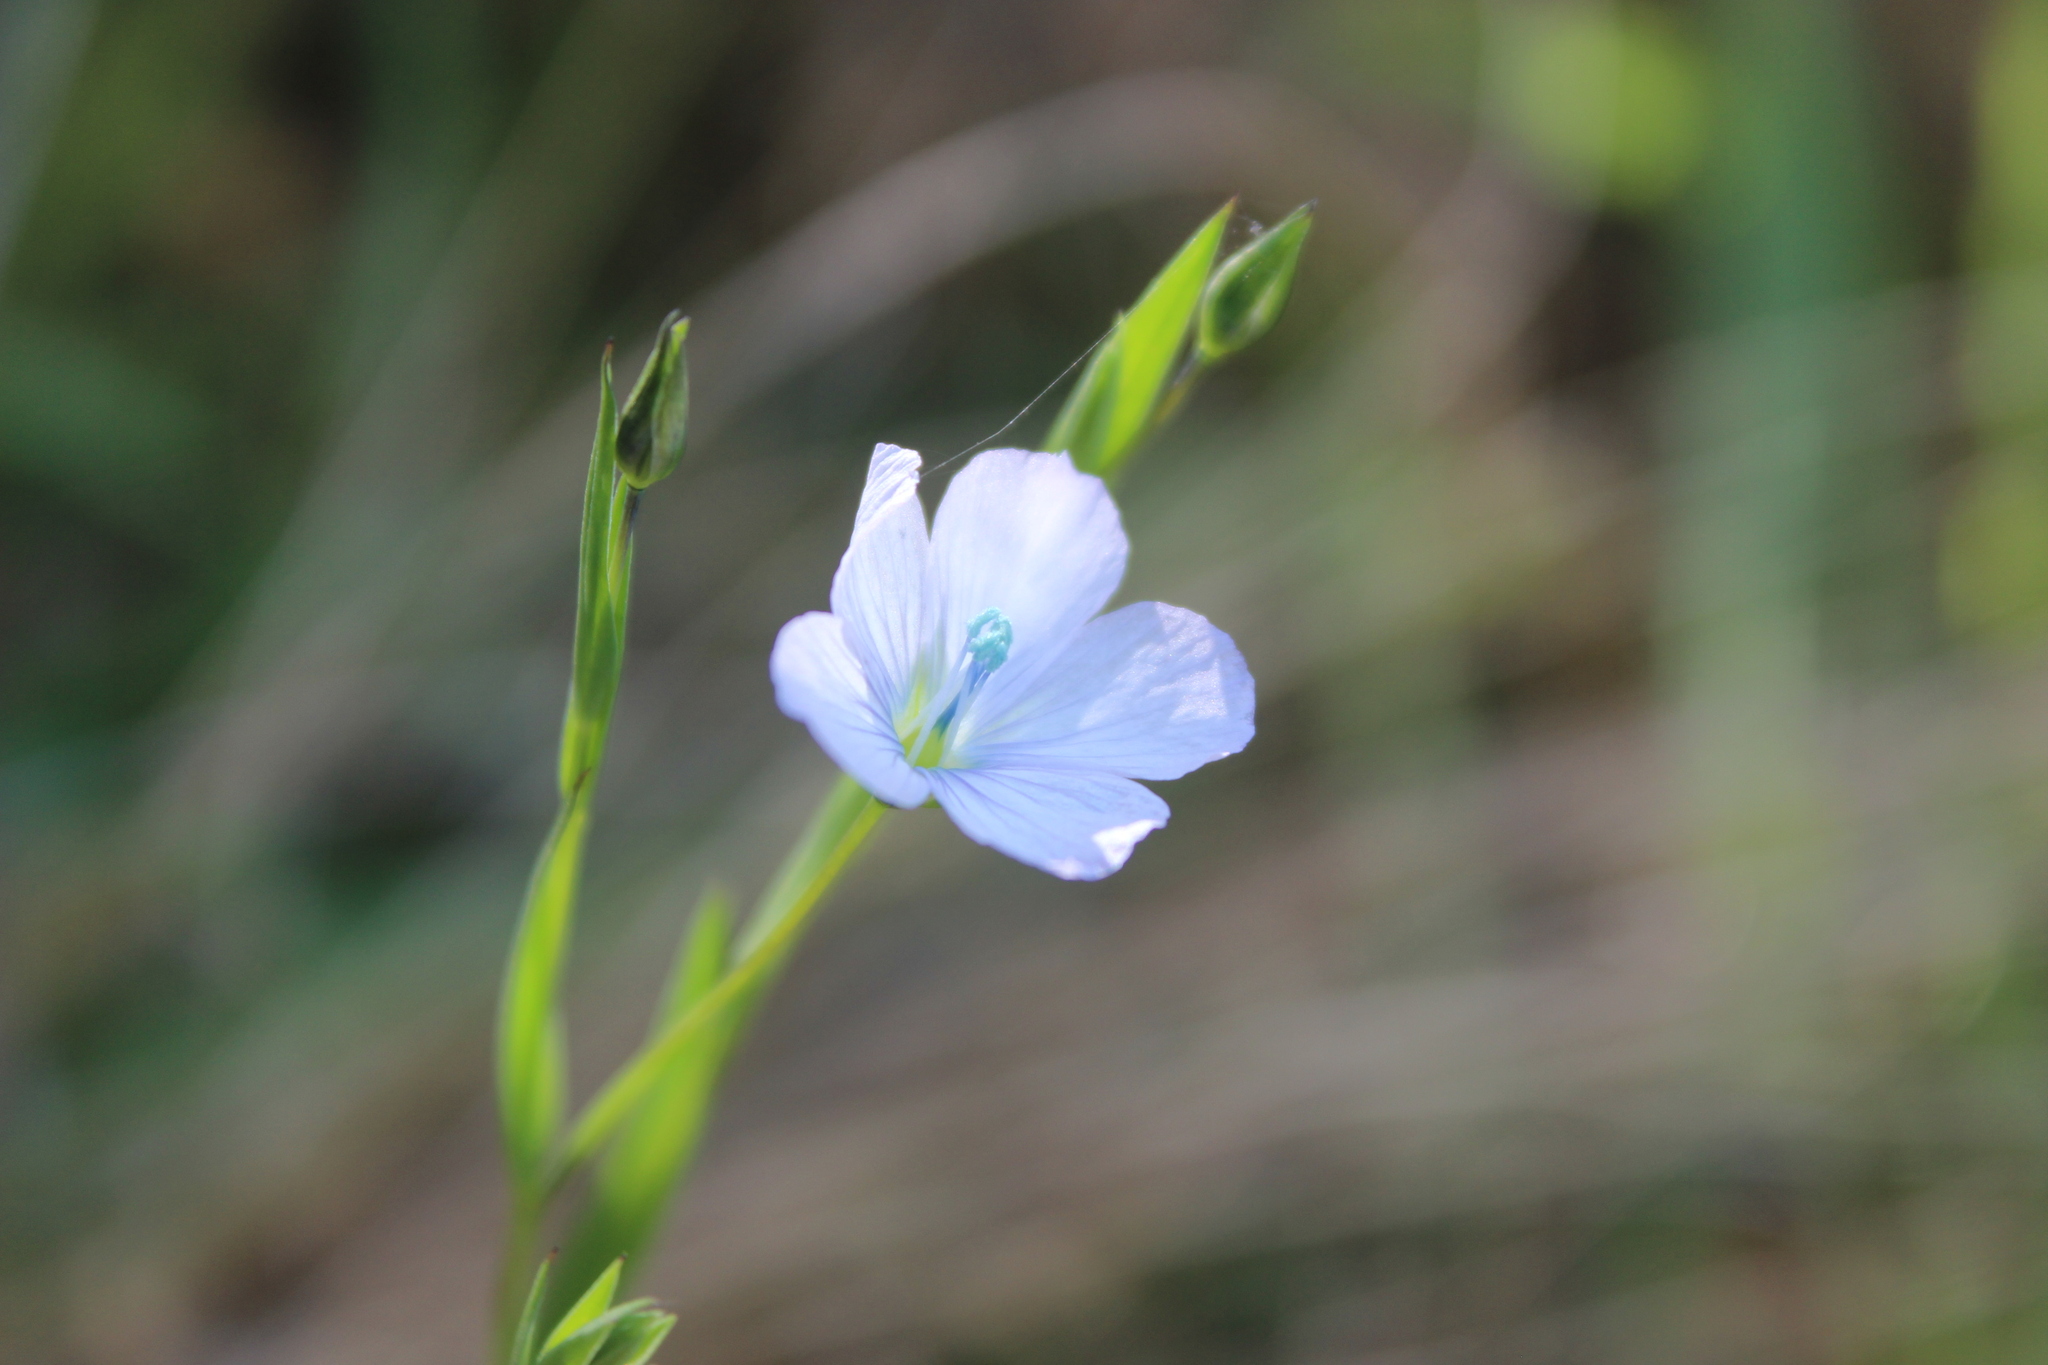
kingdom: Plantae
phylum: Tracheophyta
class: Magnoliopsida
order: Malpighiales
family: Linaceae
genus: Linum
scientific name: Linum bienne
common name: Pale flax
